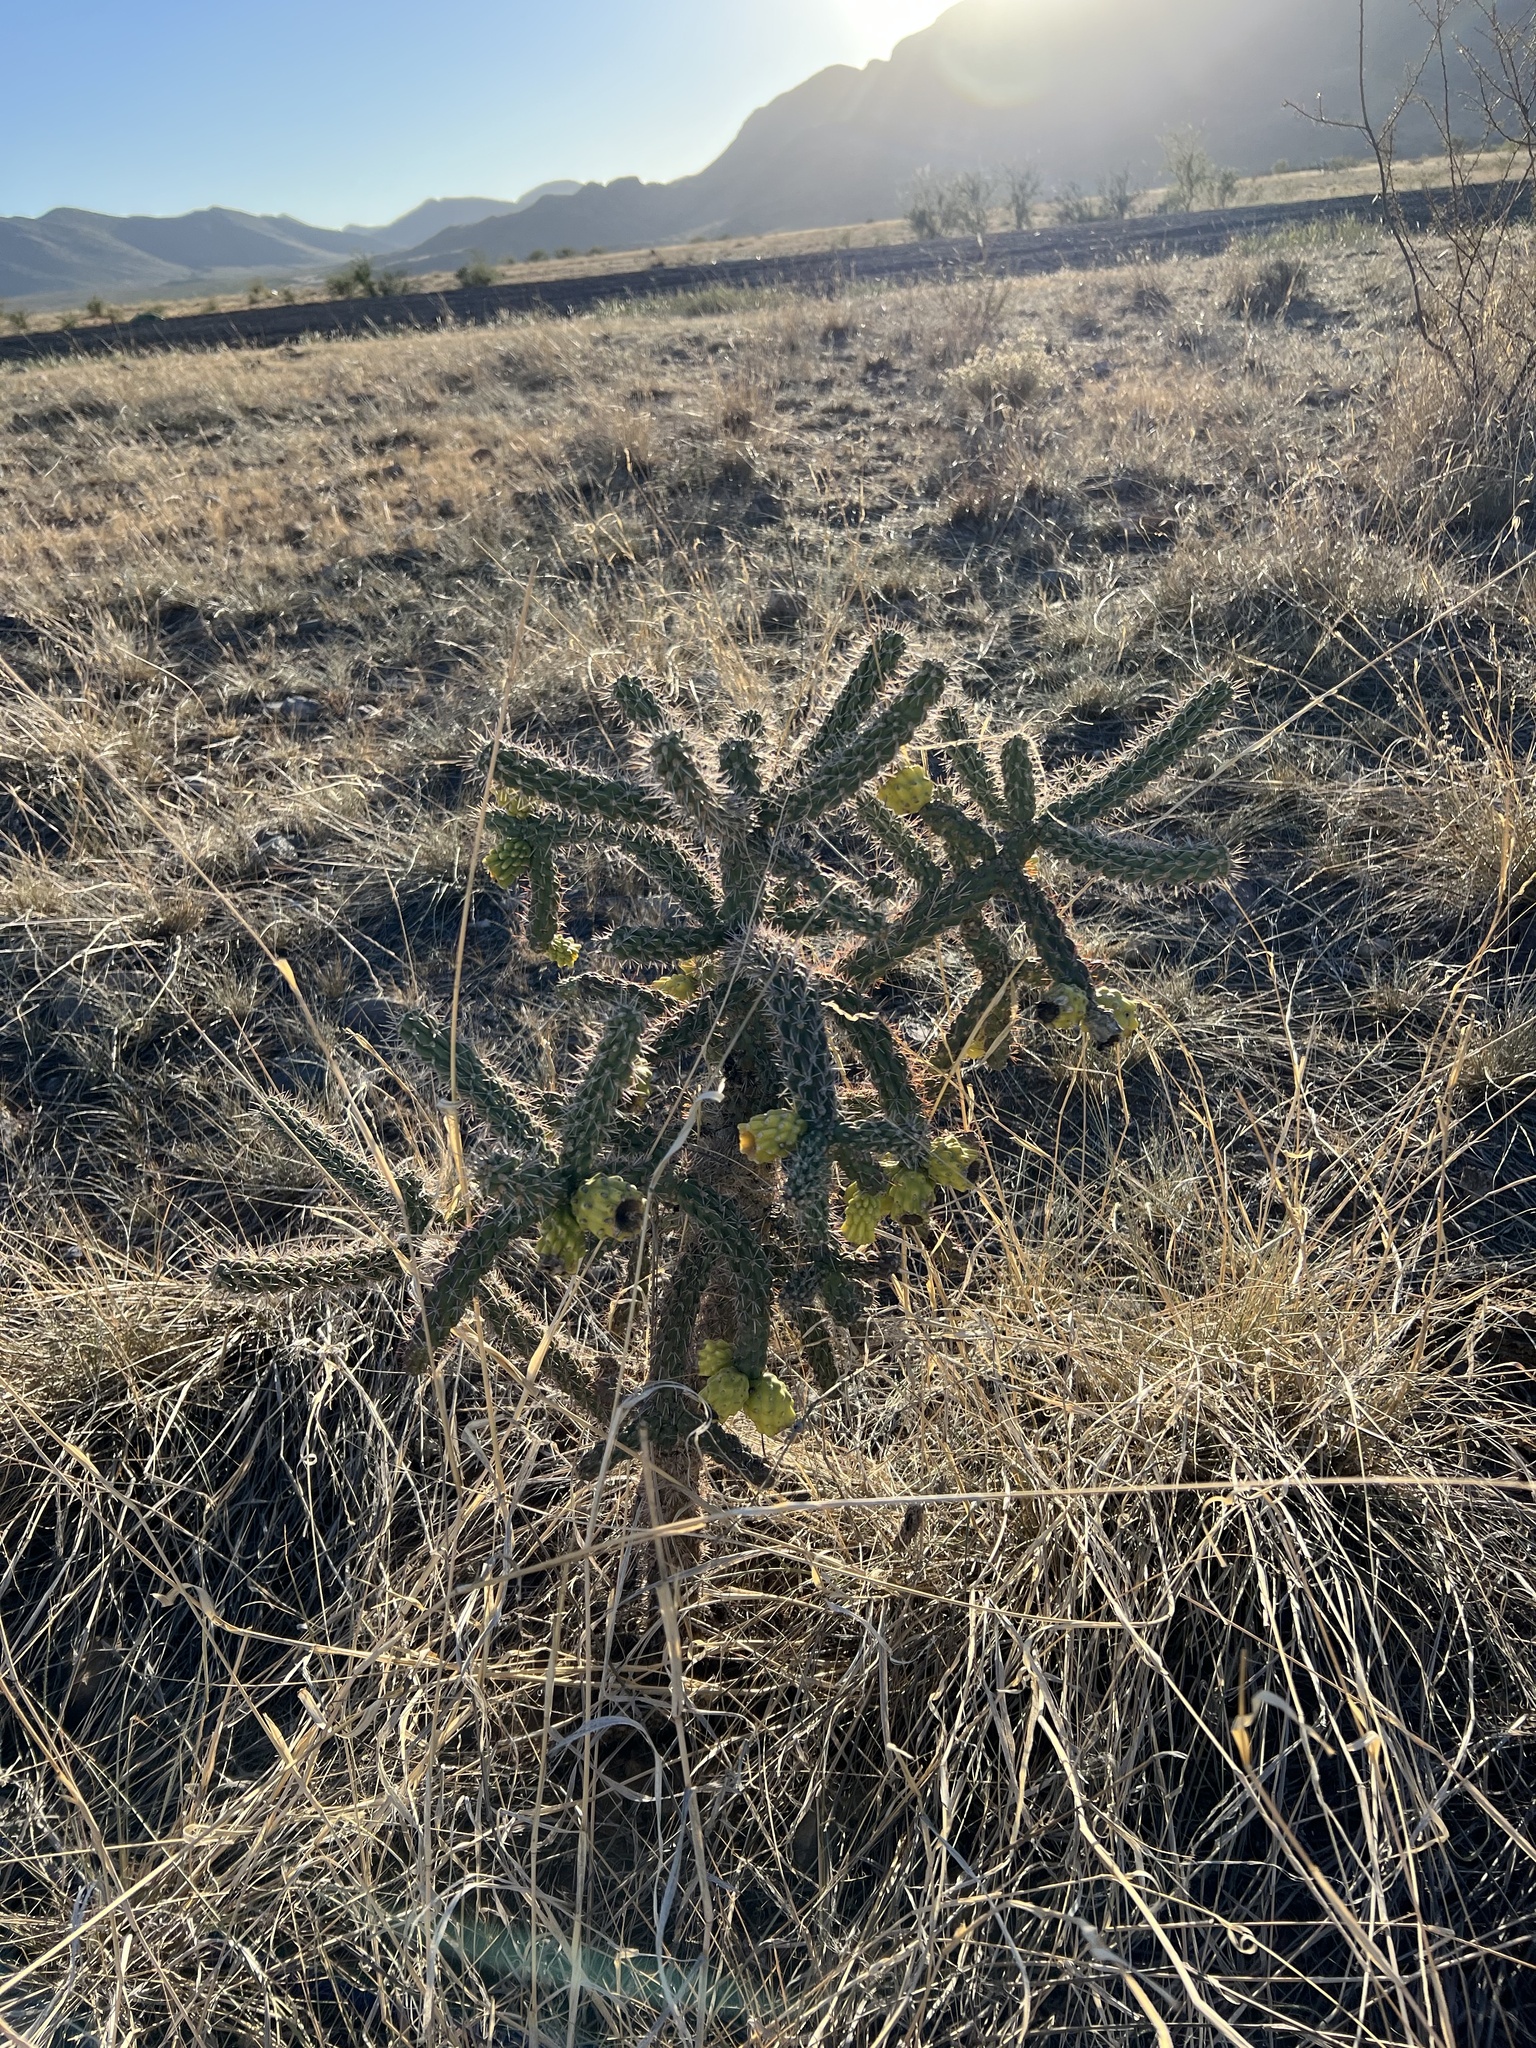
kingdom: Plantae
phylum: Tracheophyta
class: Magnoliopsida
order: Caryophyllales
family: Cactaceae
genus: Cylindropuntia
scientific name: Cylindropuntia imbricata
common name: Candelabrum cactus
